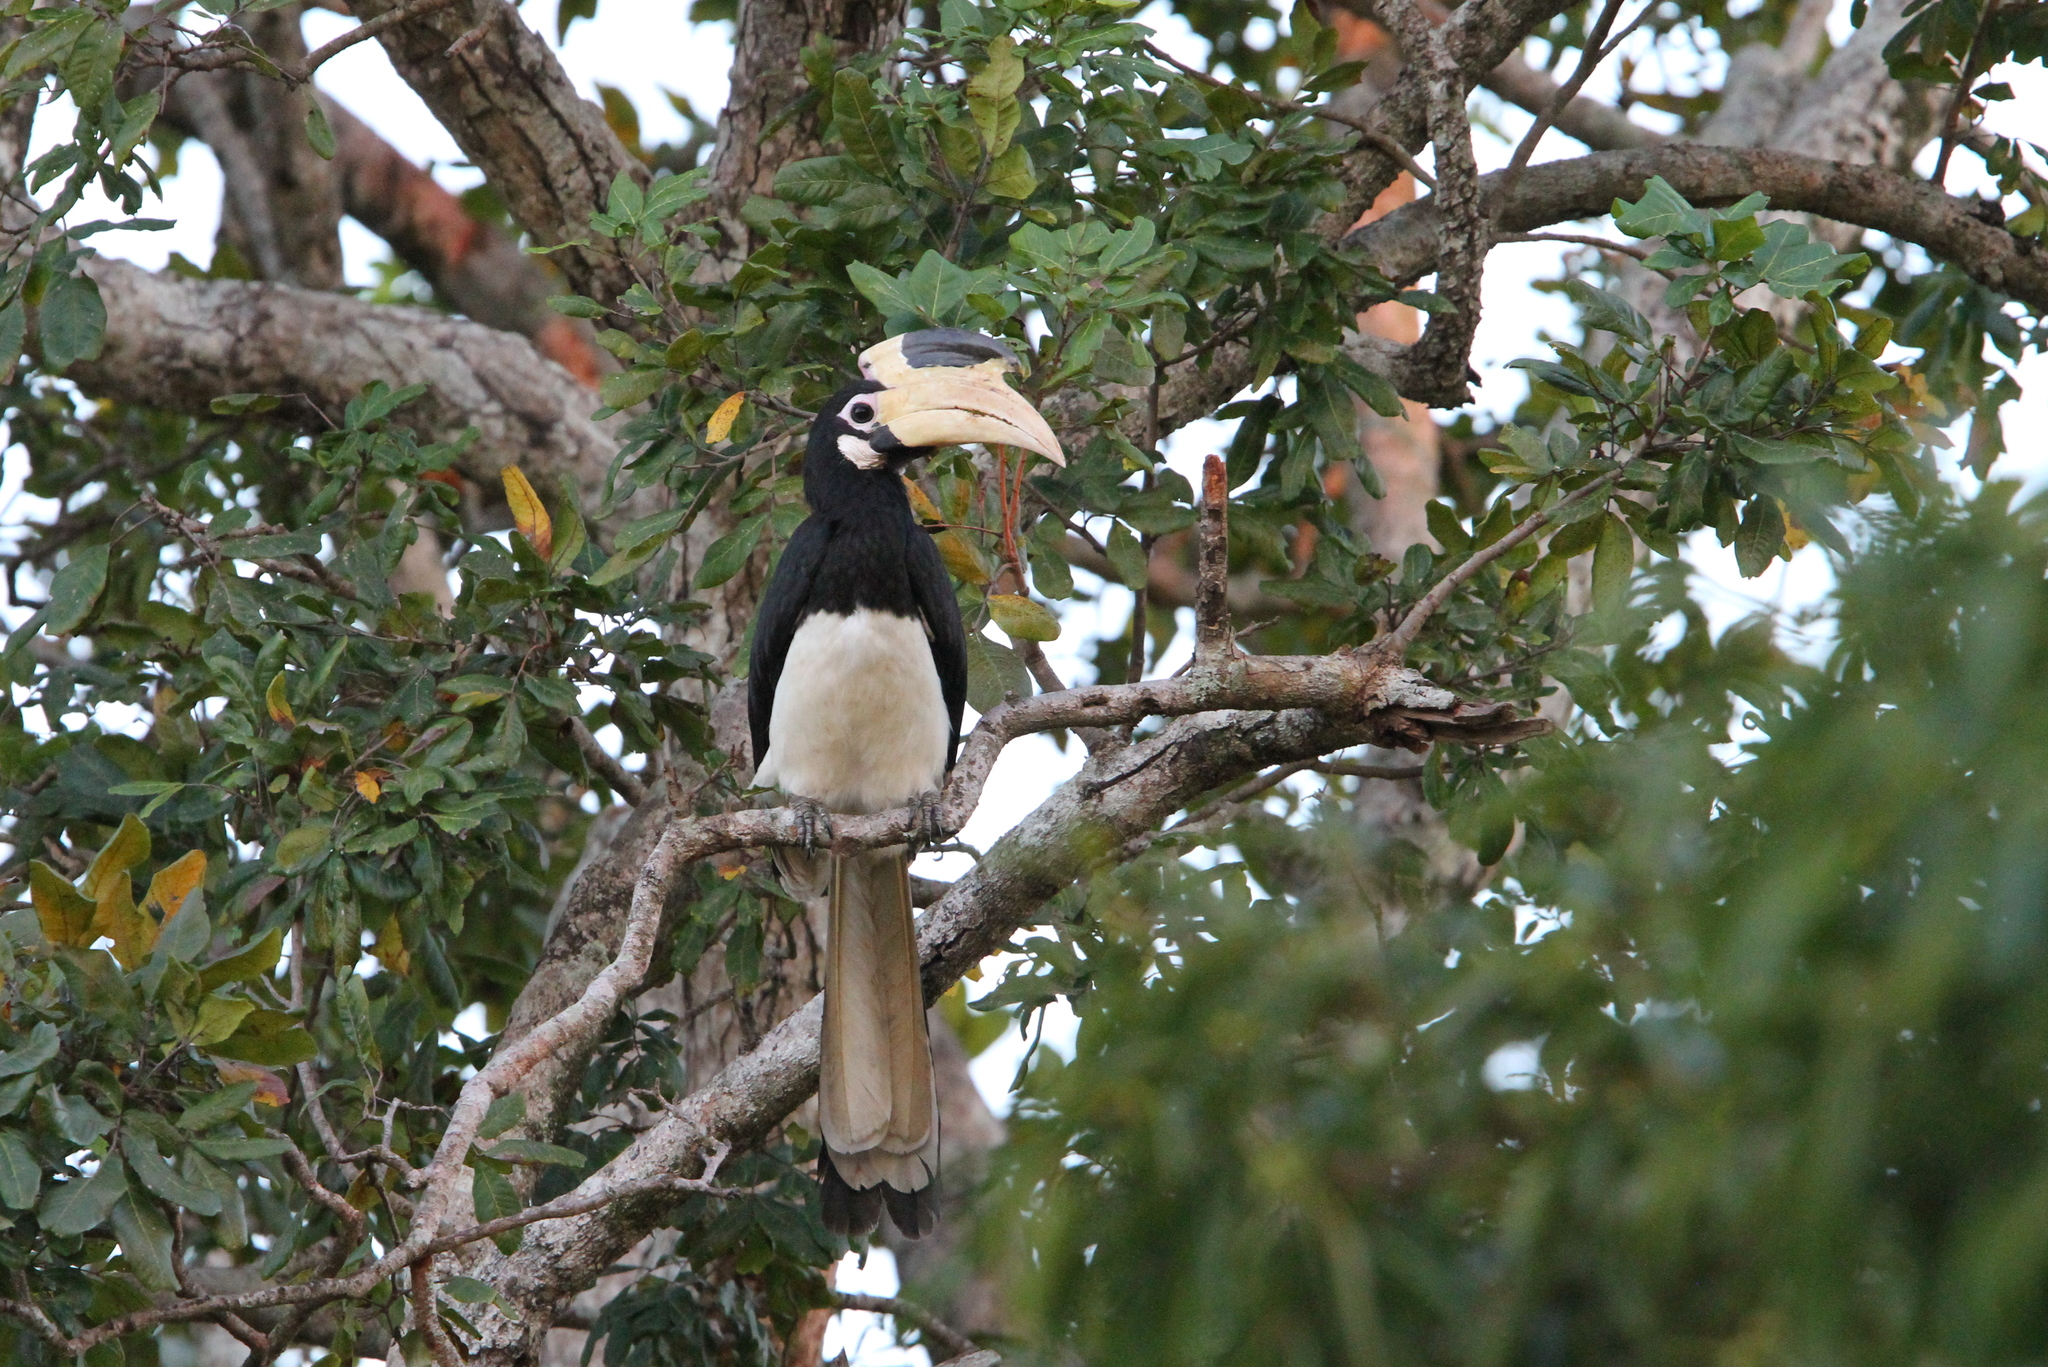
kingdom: Animalia
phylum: Chordata
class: Aves
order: Bucerotiformes
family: Bucerotidae
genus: Anthracoceros
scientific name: Anthracoceros coronatus
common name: Malabar pied hornbill
